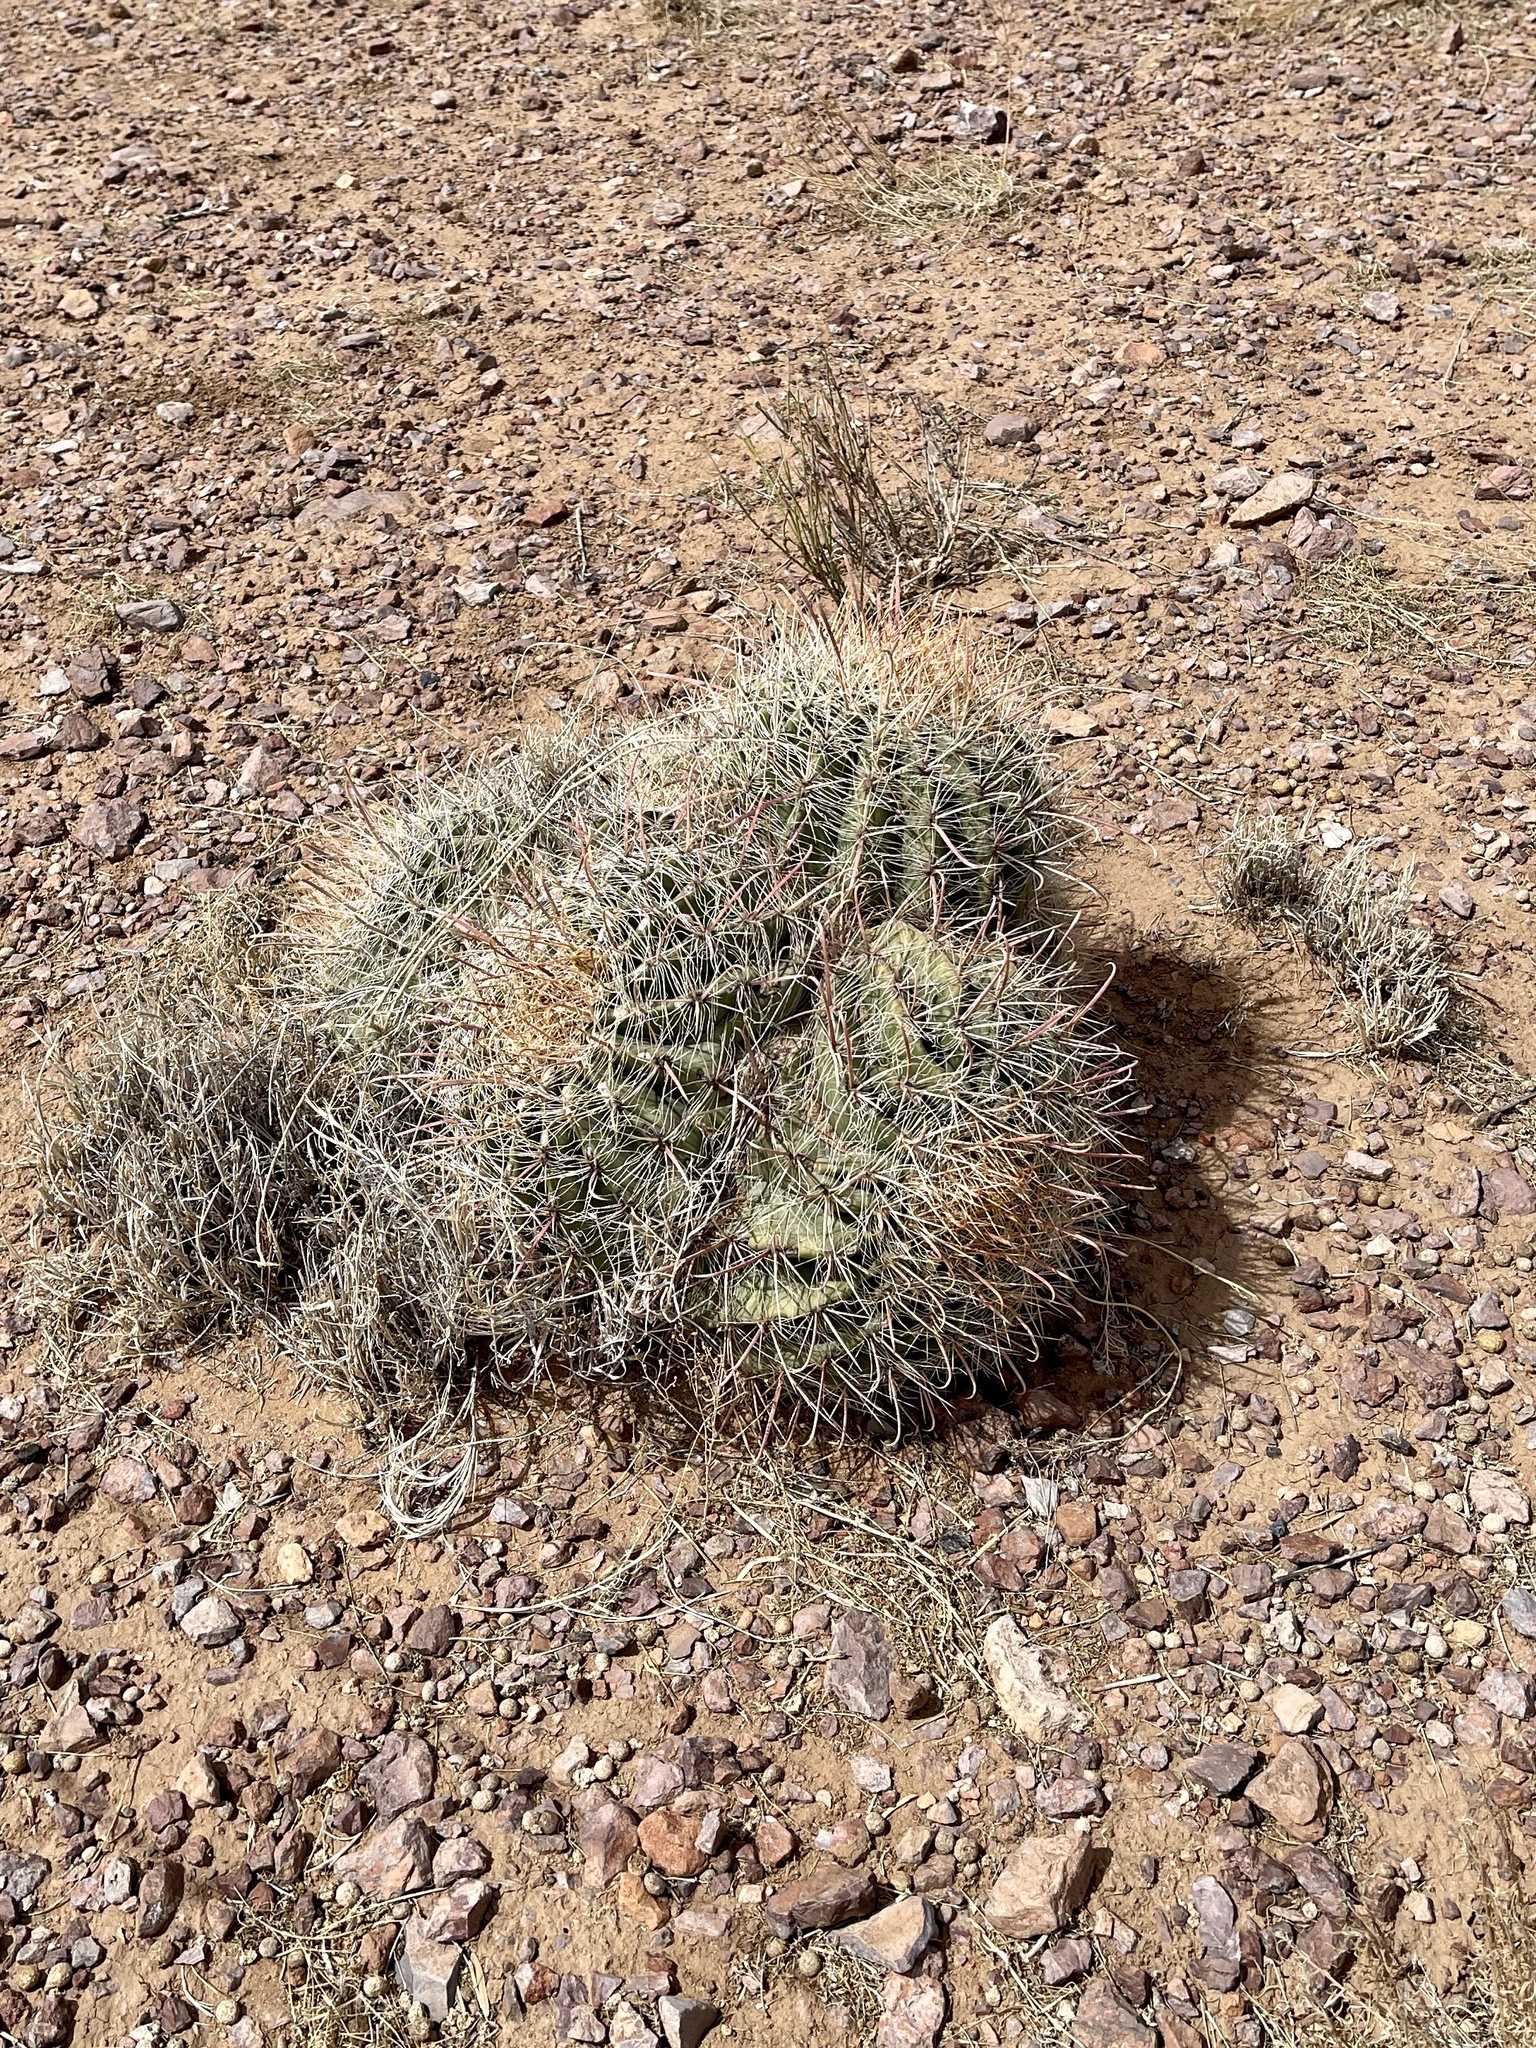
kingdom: Plantae
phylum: Tracheophyta
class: Magnoliopsida
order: Caryophyllales
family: Cactaceae
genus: Ferocactus
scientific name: Ferocactus wislizeni
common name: Candy barrel cactus
